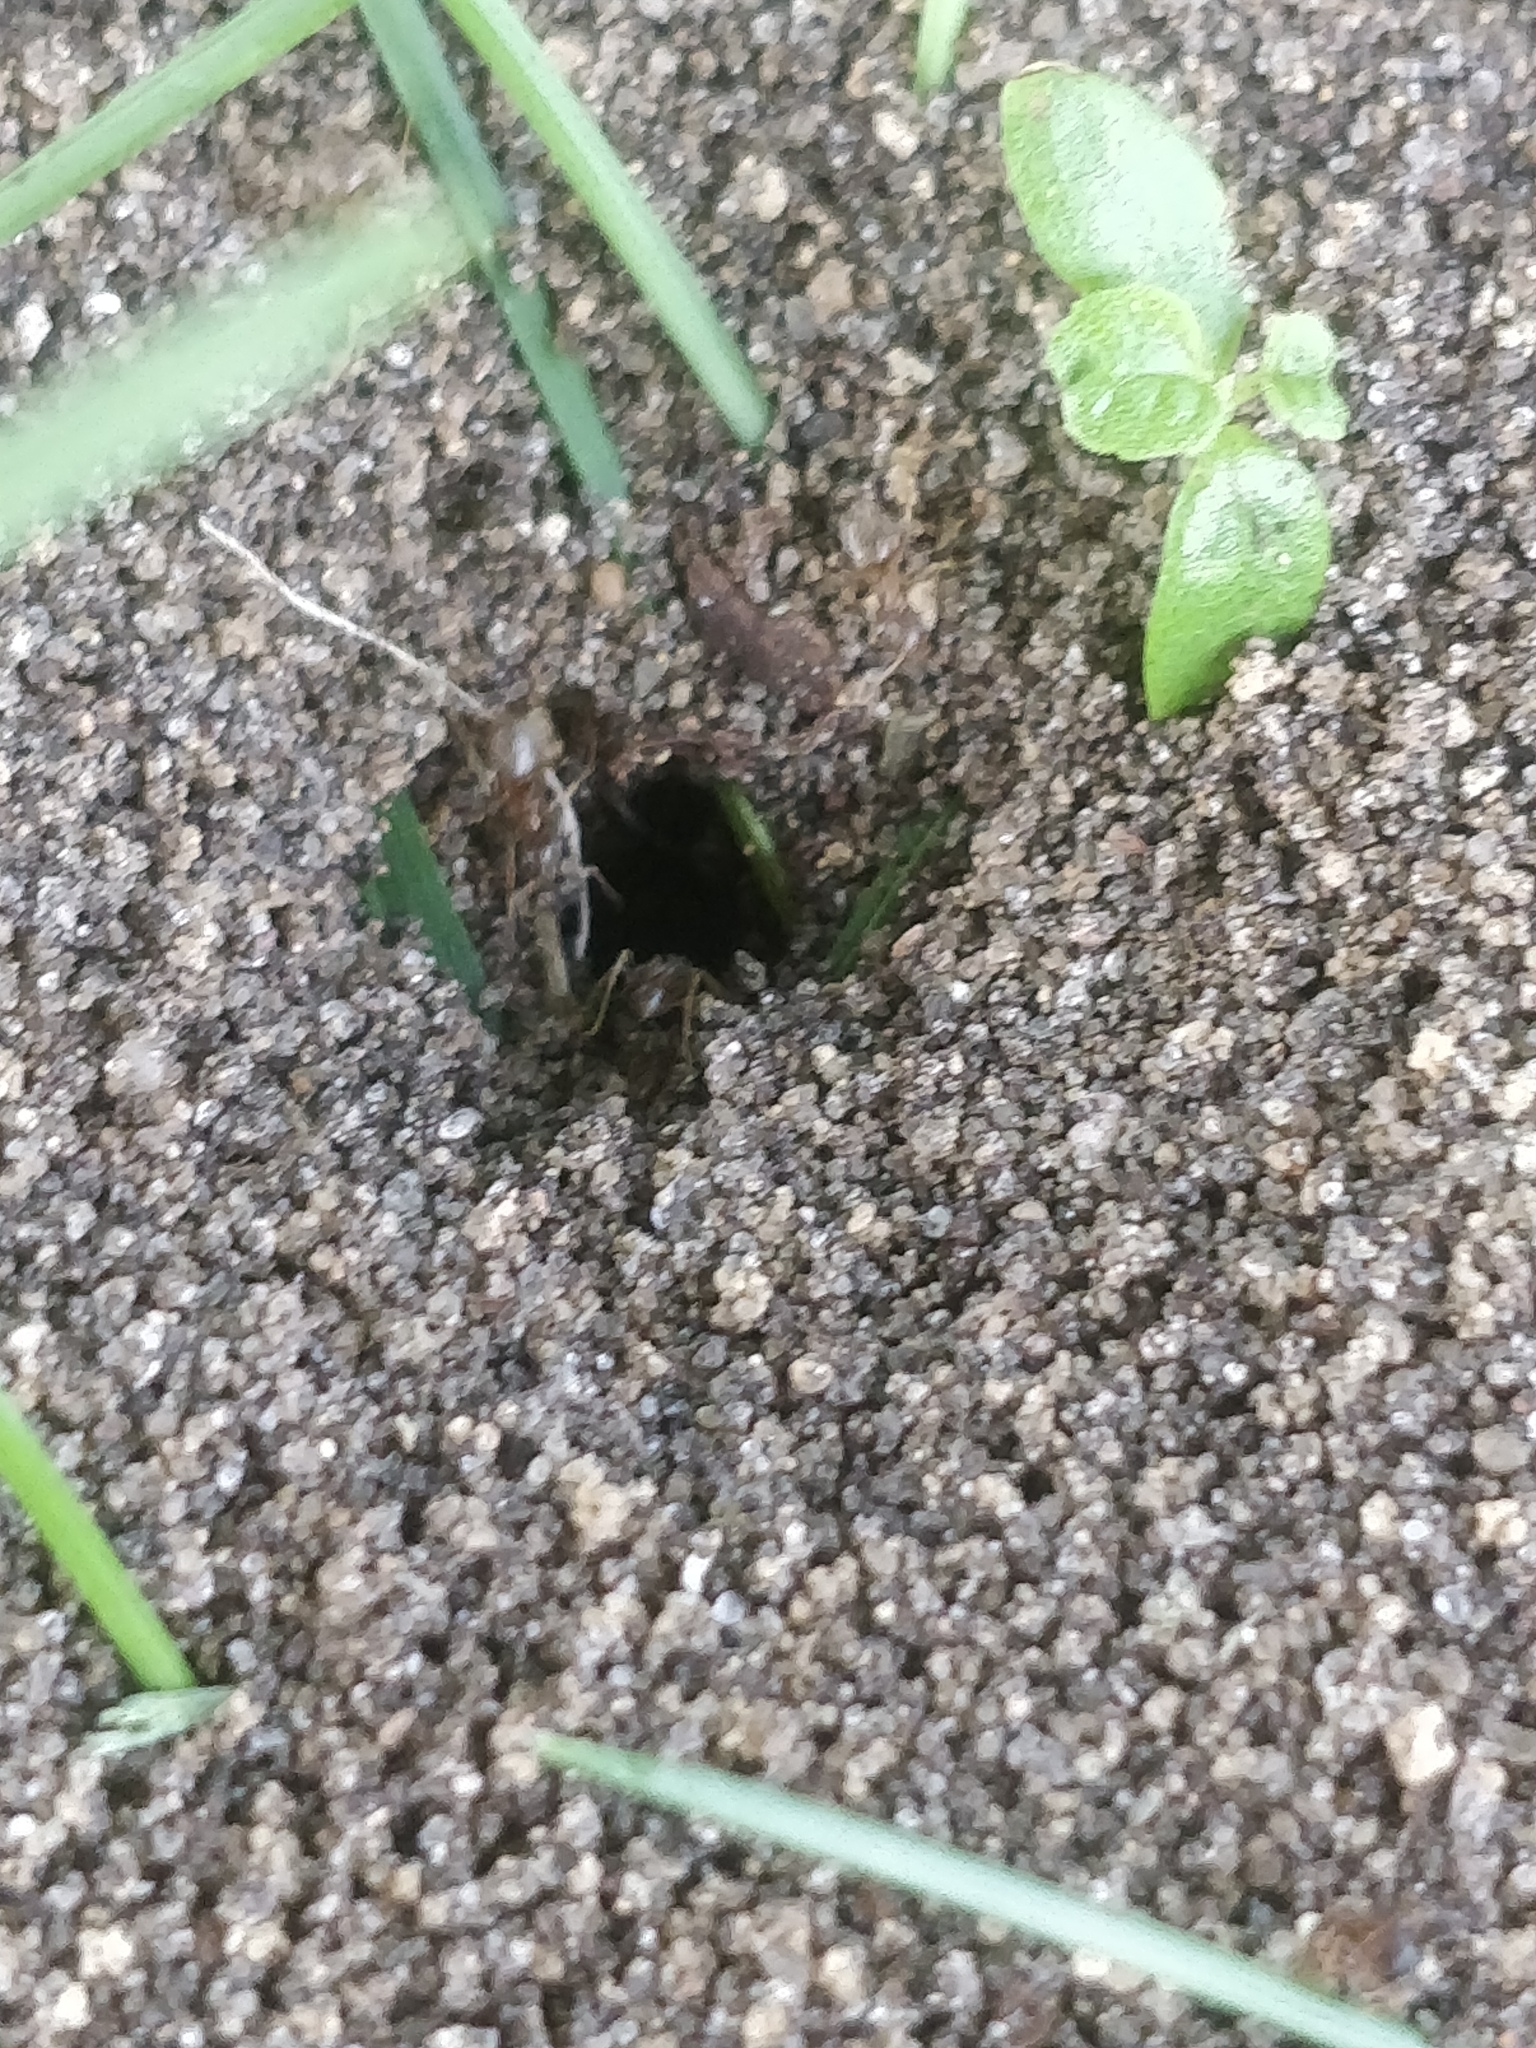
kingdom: Animalia
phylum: Arthropoda
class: Insecta
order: Hymenoptera
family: Formicidae
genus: Lasius
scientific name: Lasius neoniger
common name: Turfgrass ant
